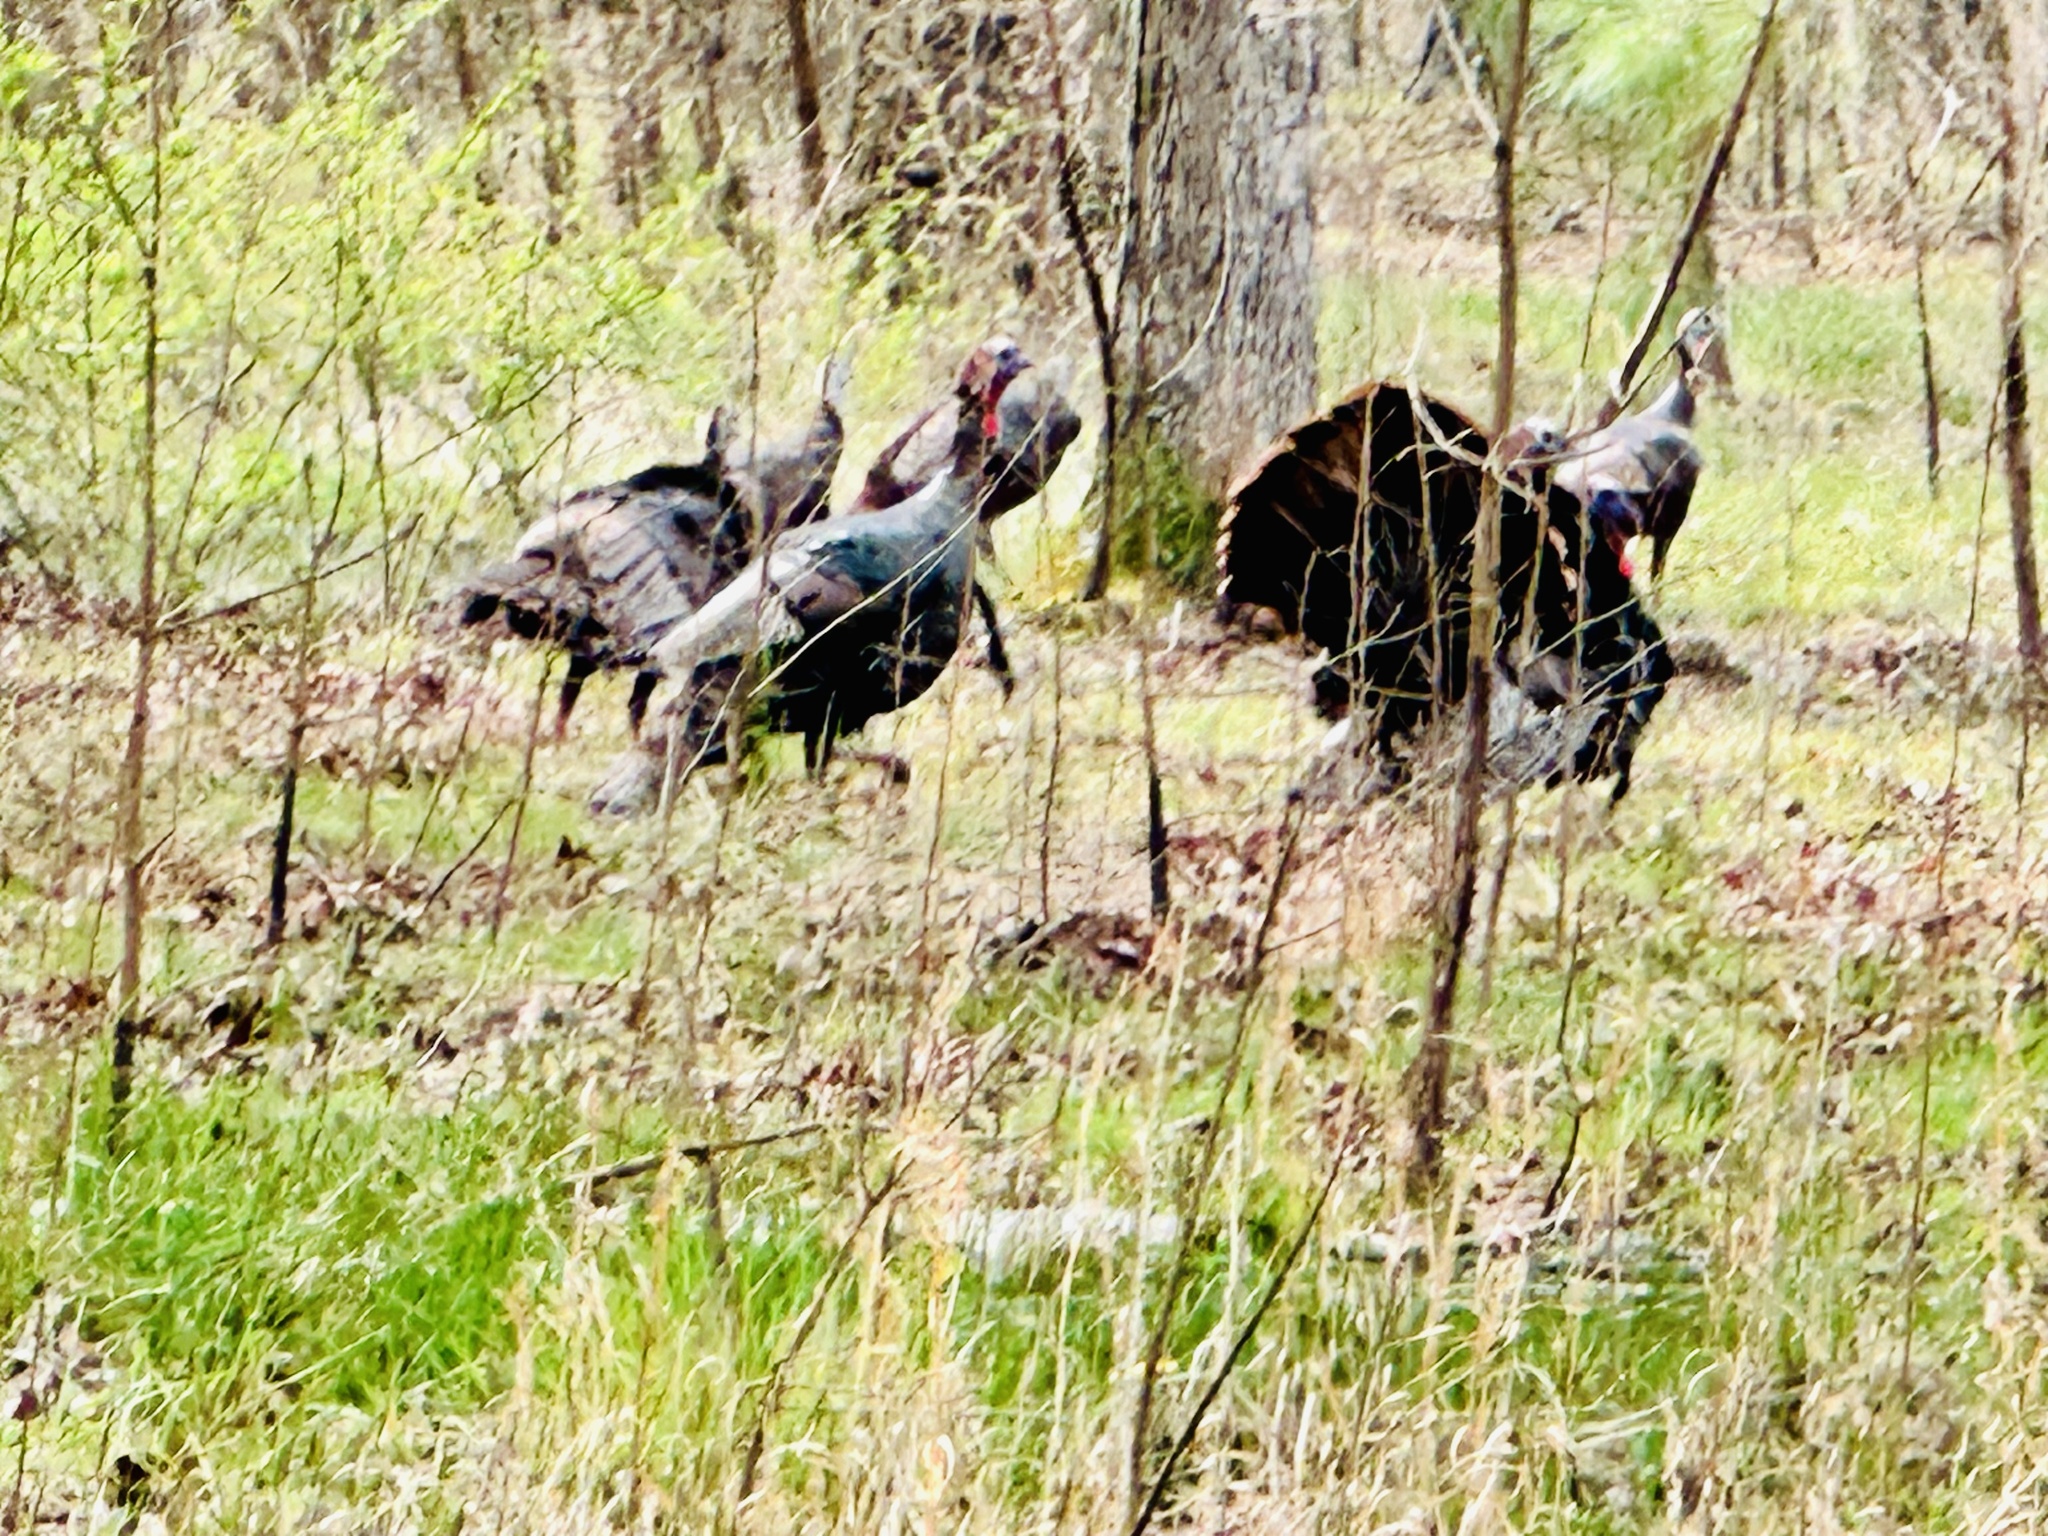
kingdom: Animalia
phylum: Chordata
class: Aves
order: Galliformes
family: Phasianidae
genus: Meleagris
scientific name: Meleagris gallopavo
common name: Wild turkey
